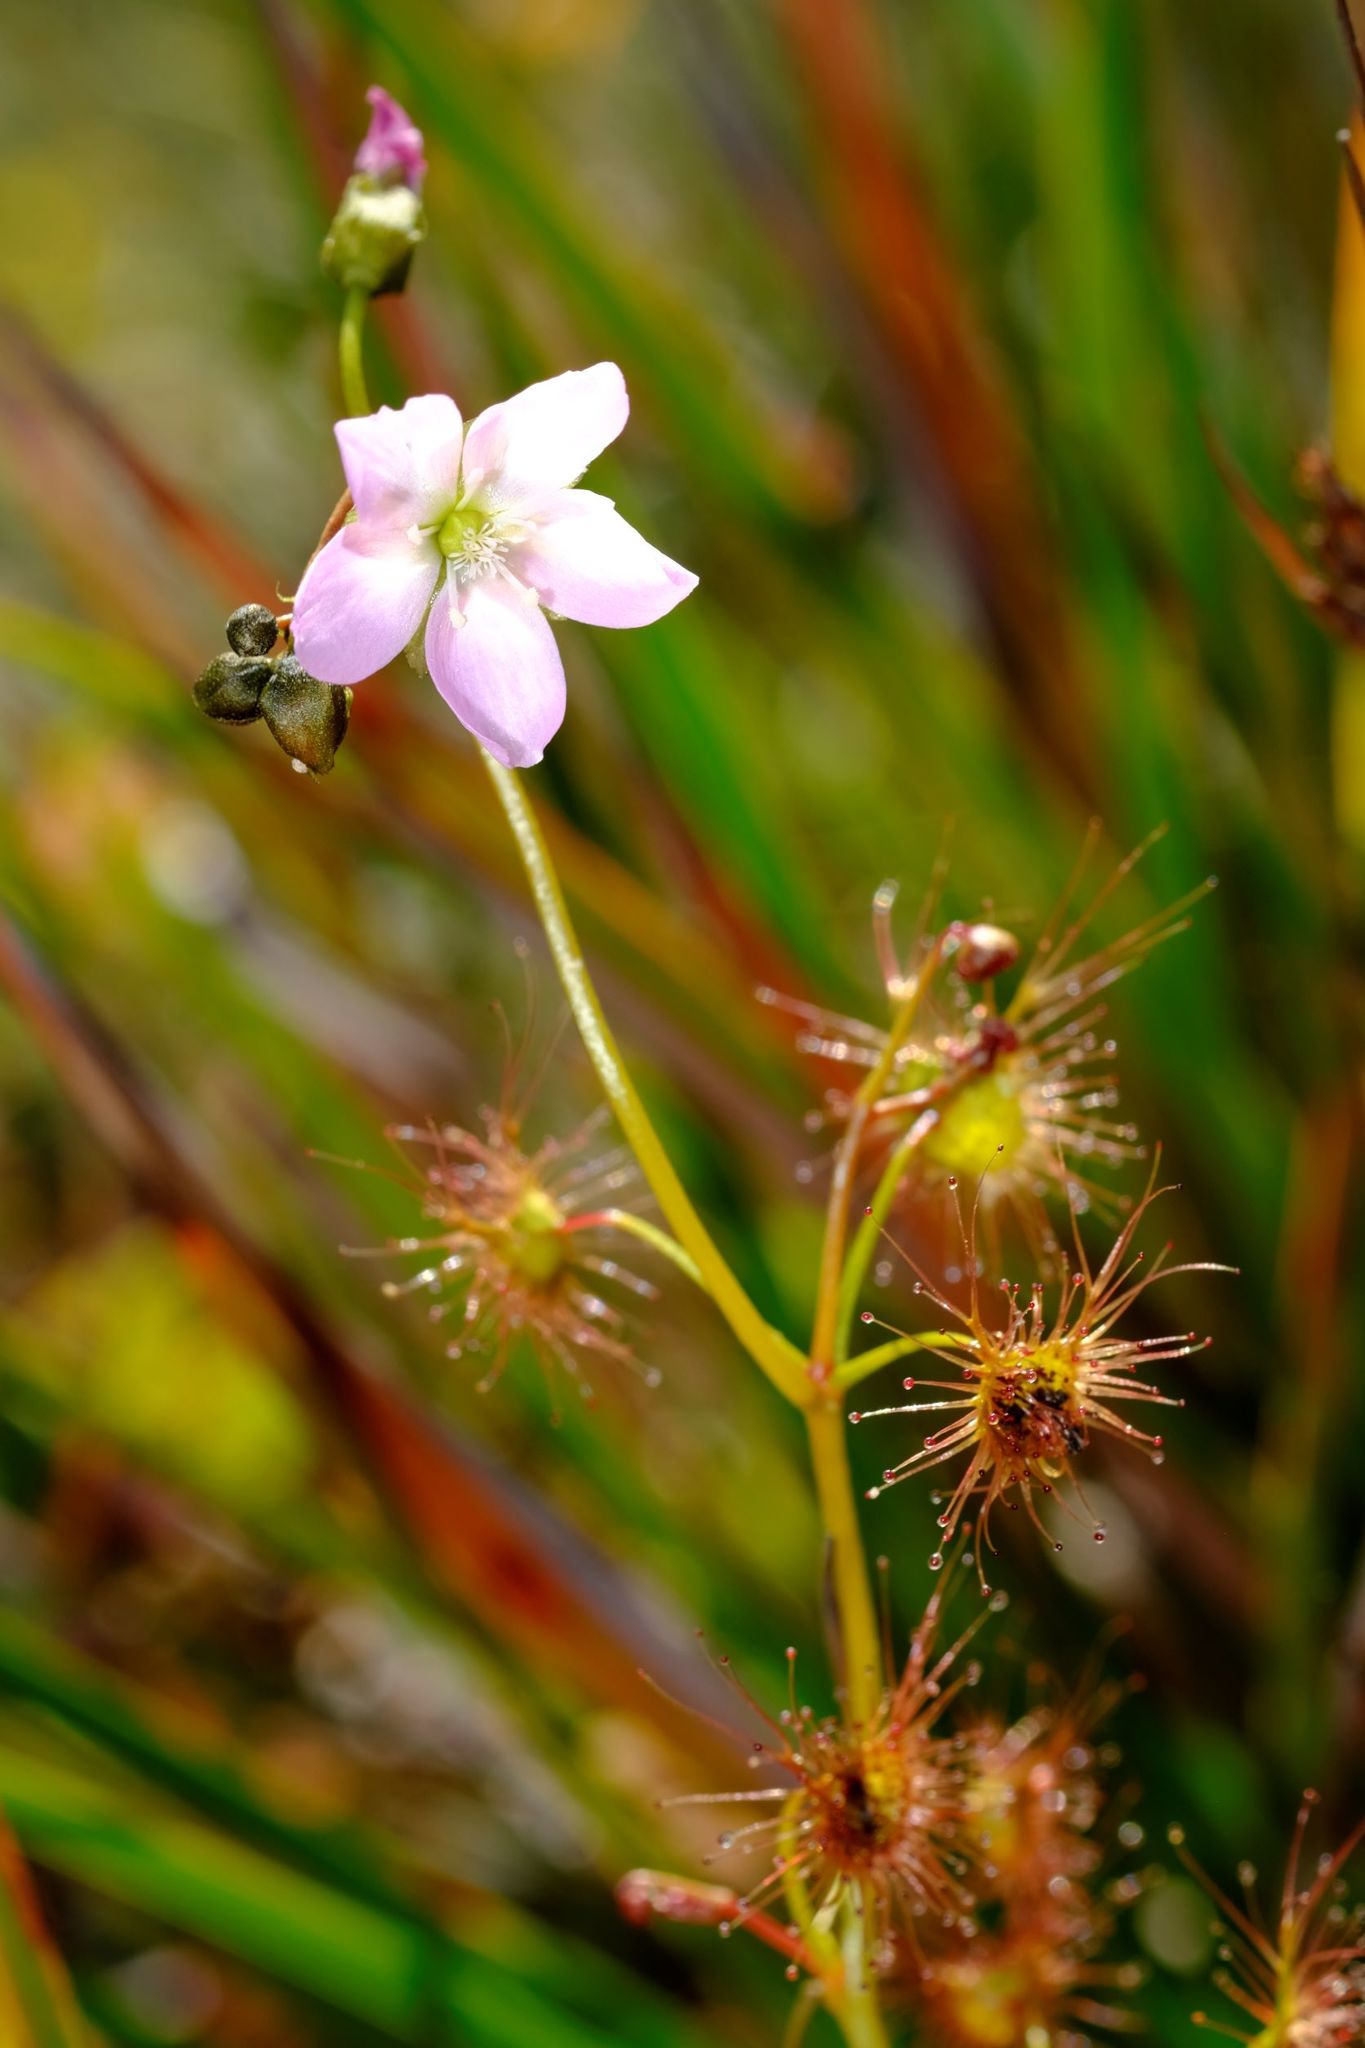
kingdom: Plantae
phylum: Tracheophyta
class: Magnoliopsida
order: Caryophyllales
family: Droseraceae
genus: Drosera
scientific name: Drosera peltata
